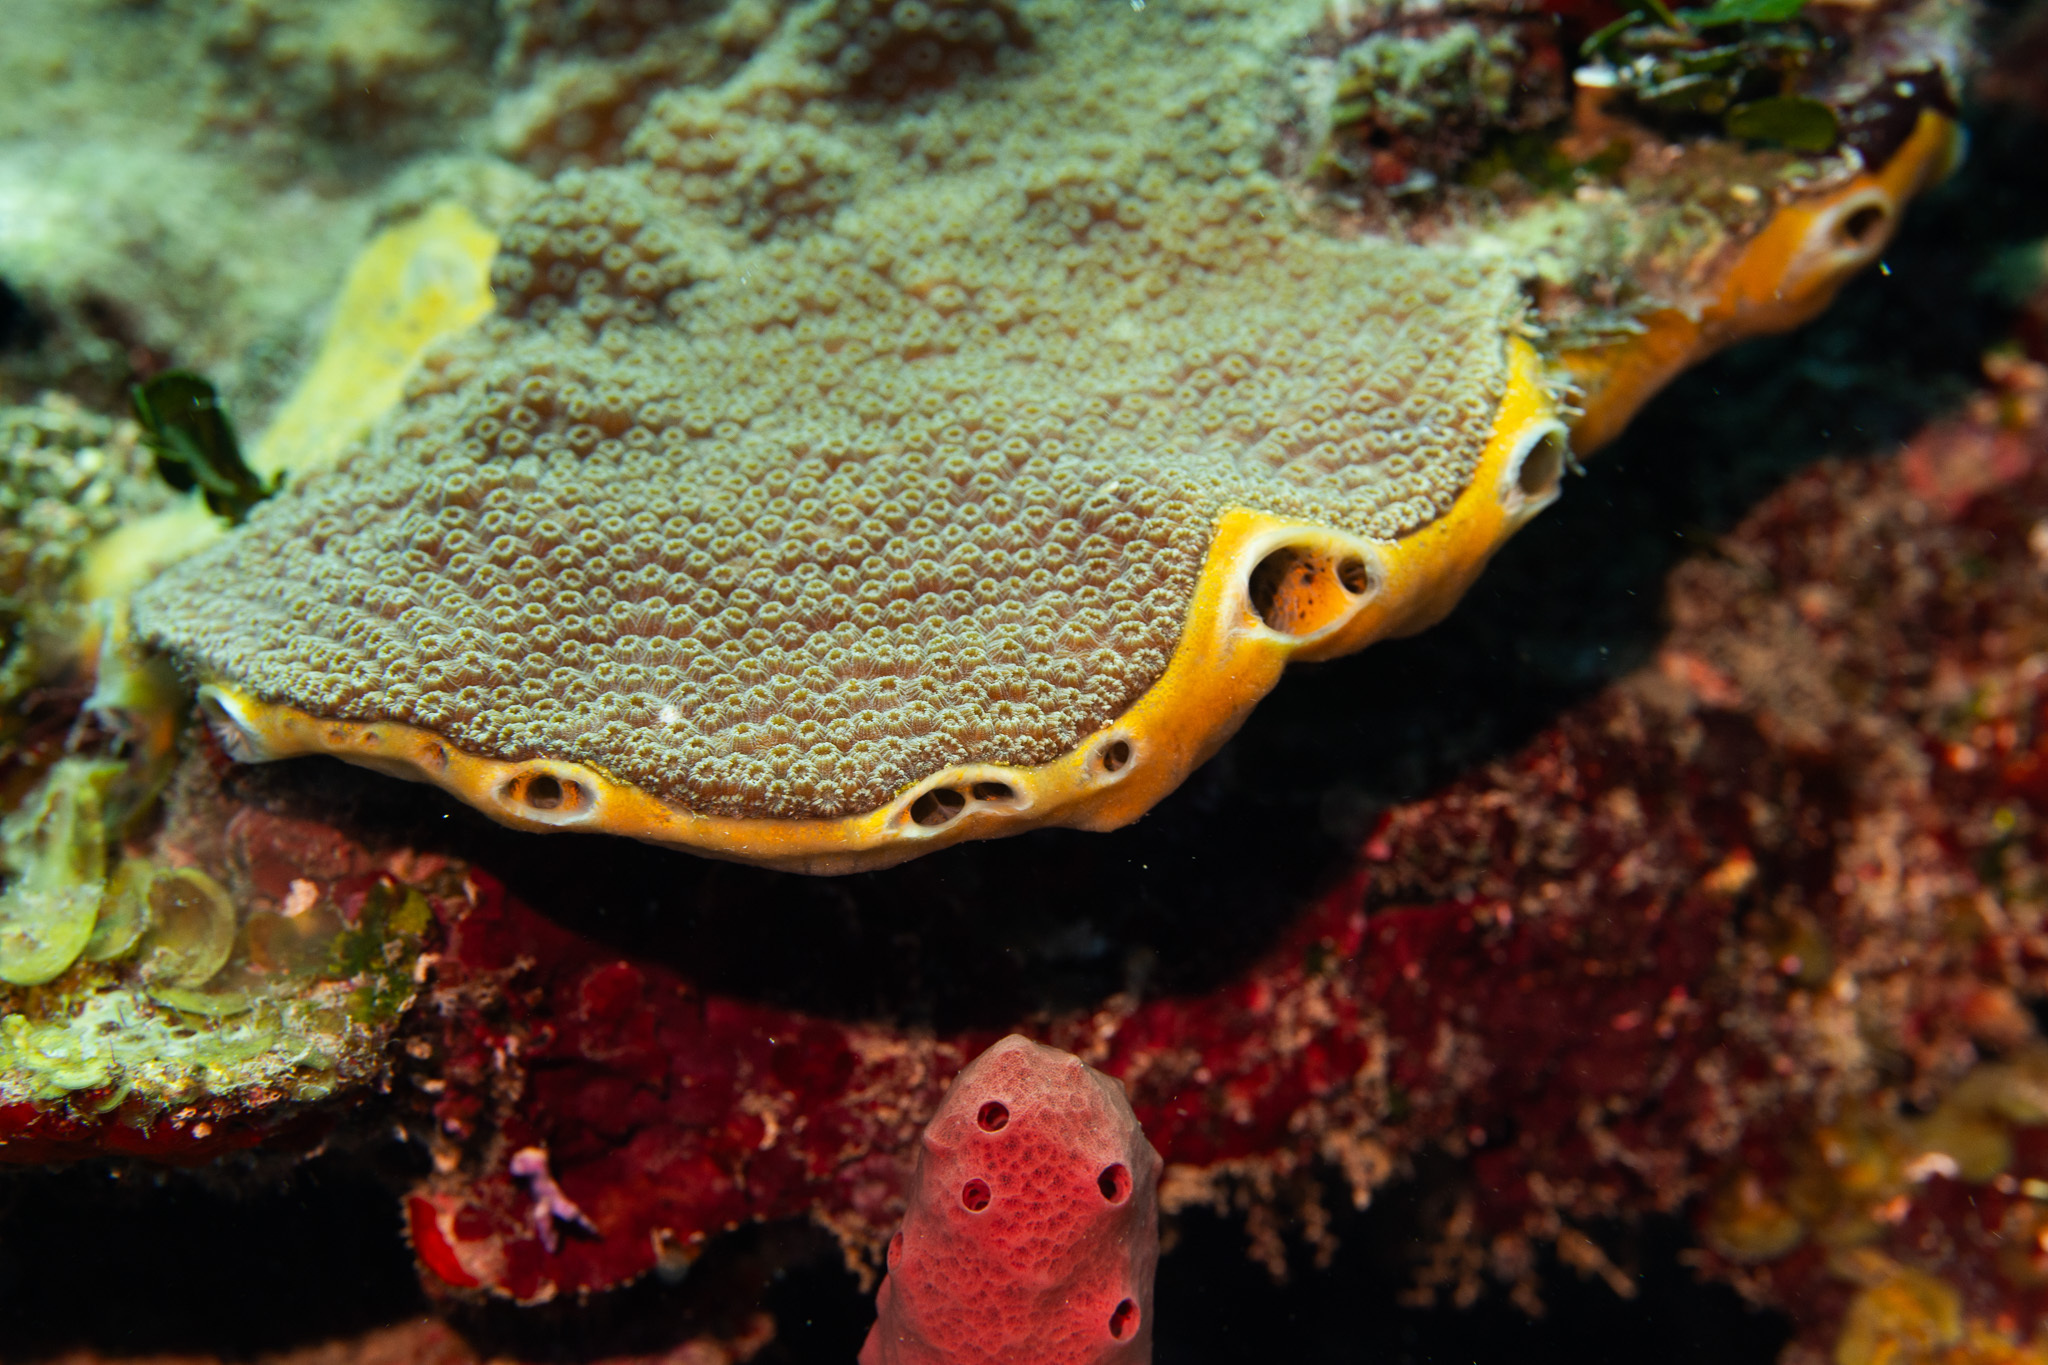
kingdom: Animalia
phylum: Porifera
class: Demospongiae
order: Poecilosclerida
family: Mycalidae
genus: Mycale
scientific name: Mycale laevis
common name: Orange icing sponge
